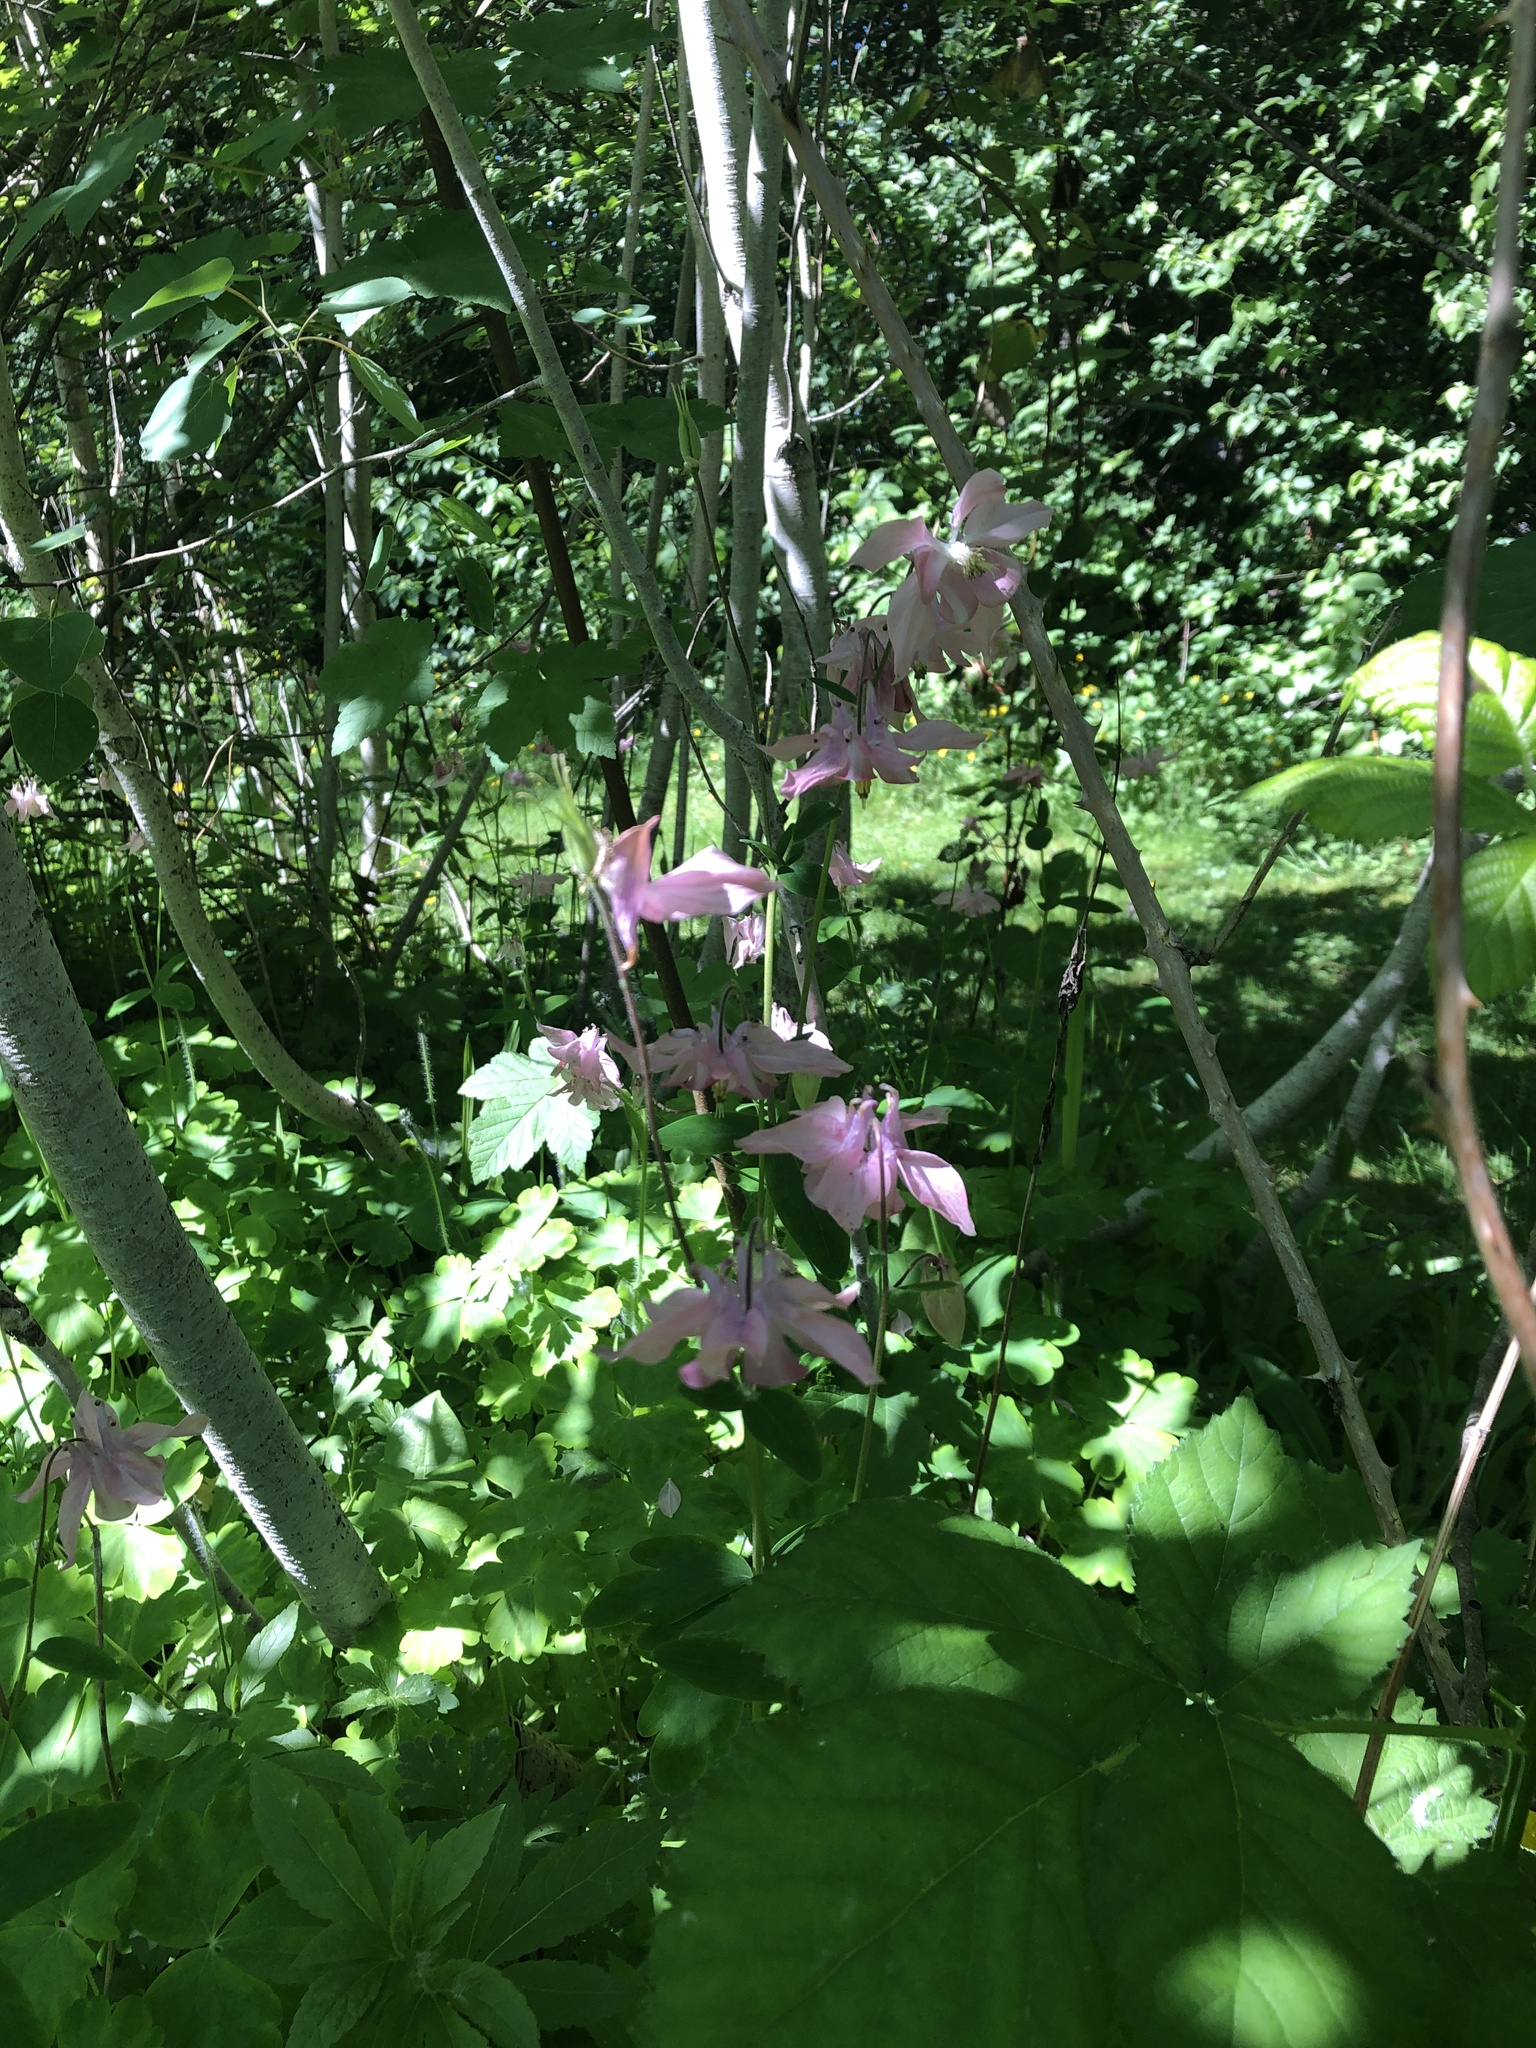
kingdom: Plantae
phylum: Tracheophyta
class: Magnoliopsida
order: Ranunculales
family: Ranunculaceae
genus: Aquilegia
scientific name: Aquilegia vulgaris
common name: Columbine
